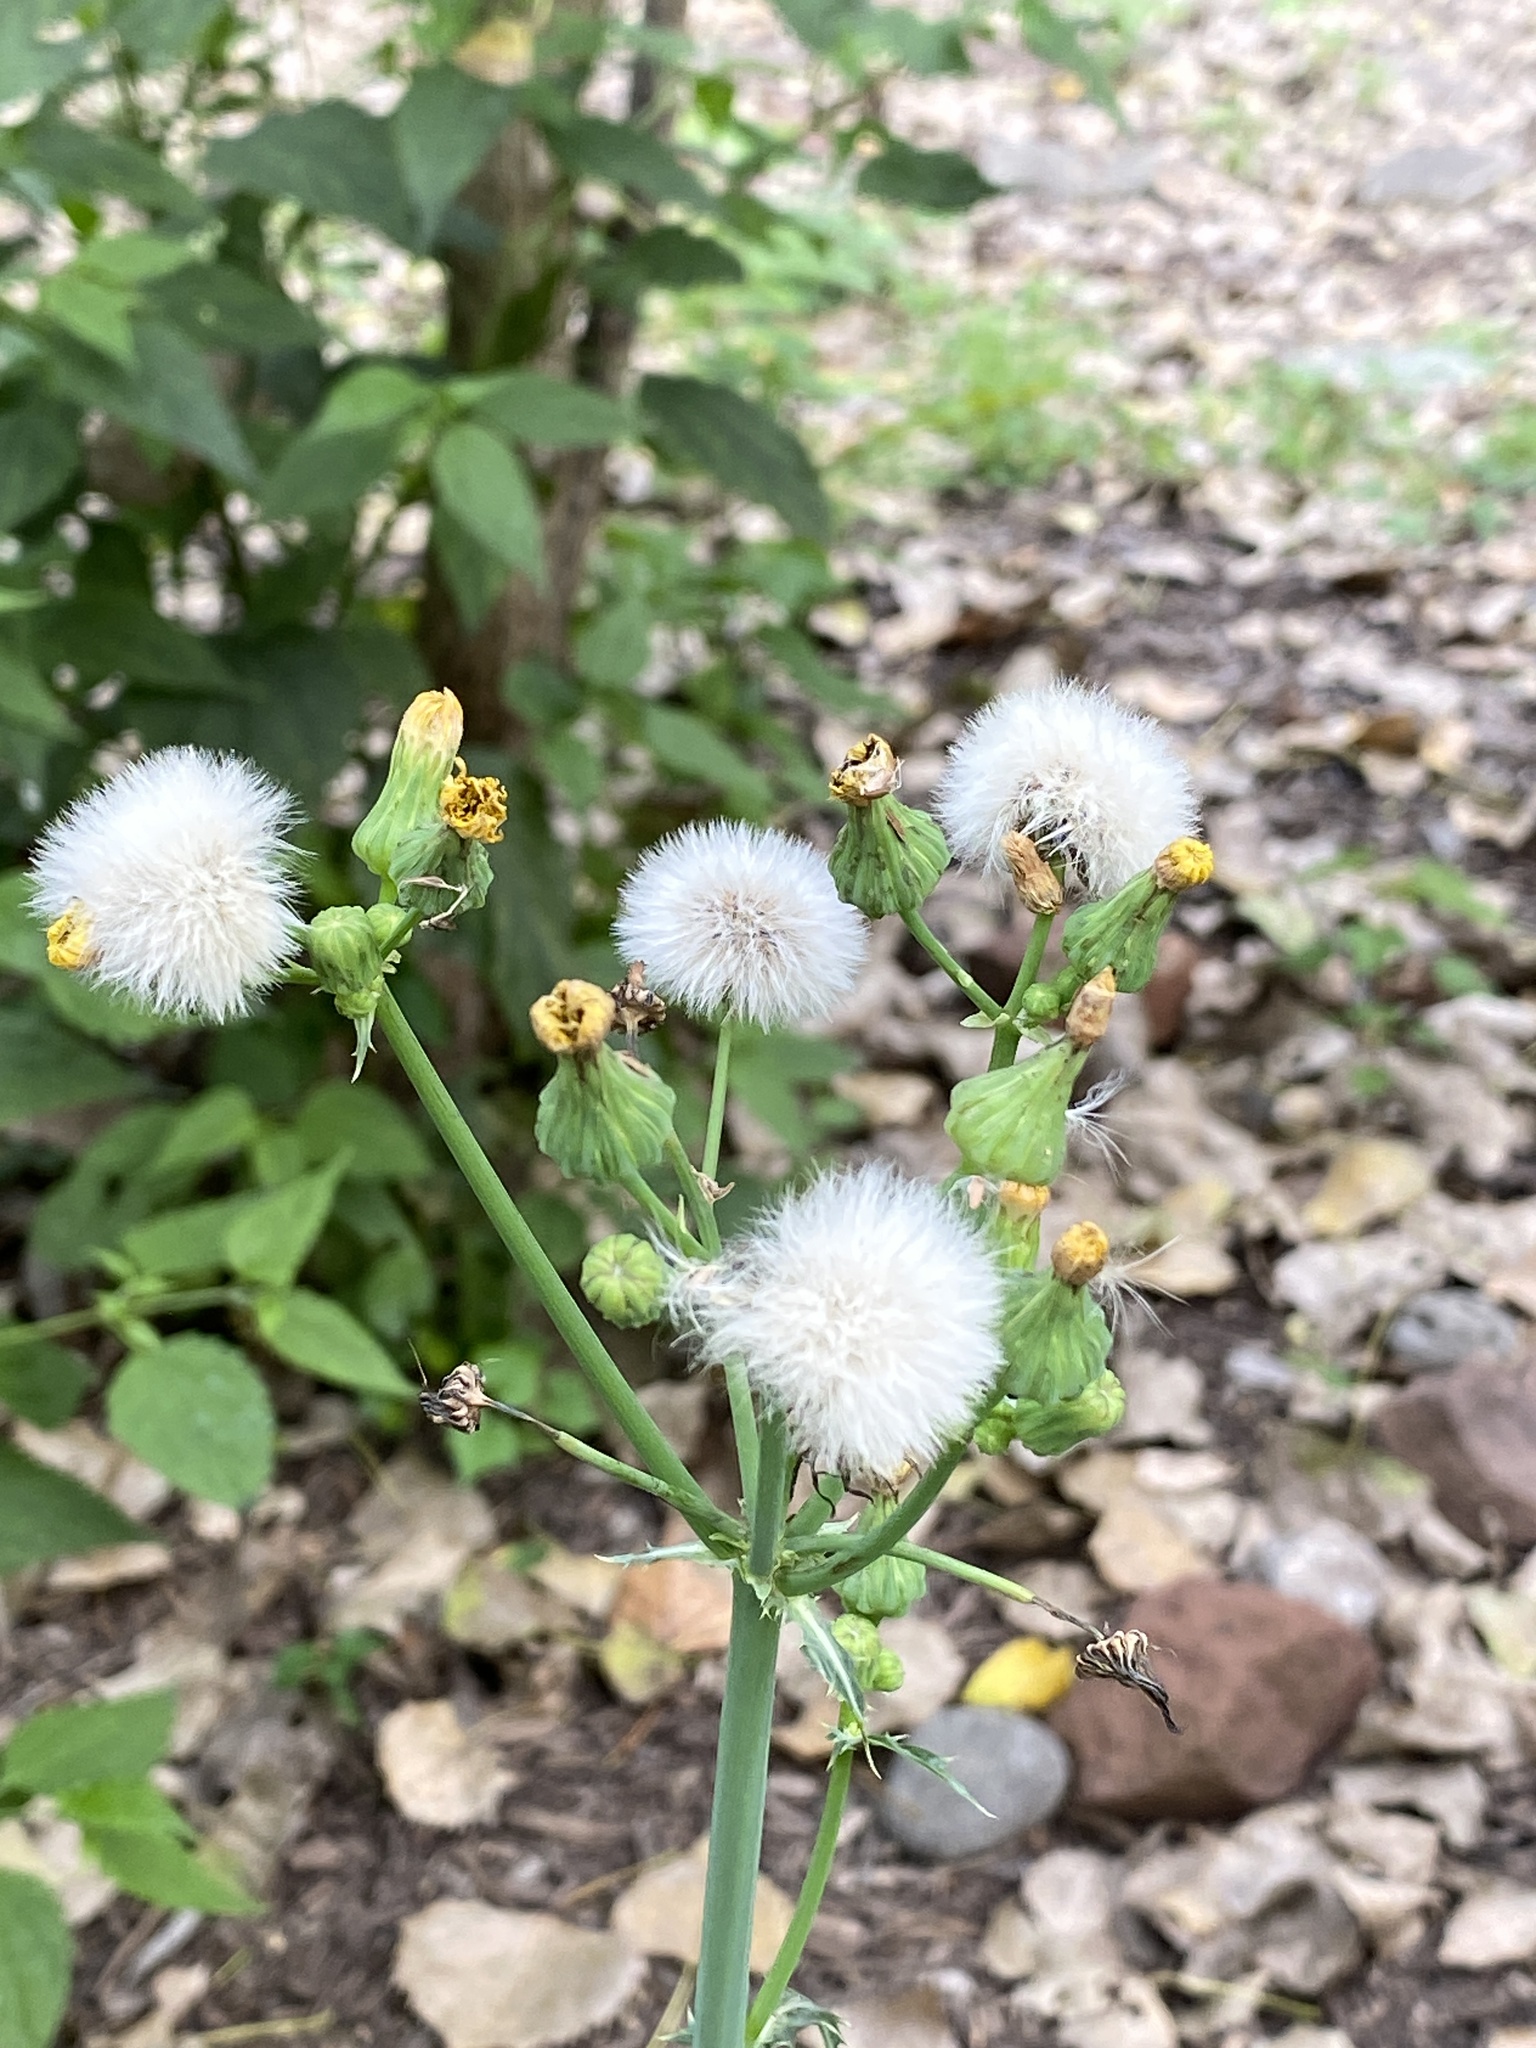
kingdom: Plantae
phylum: Tracheophyta
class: Magnoliopsida
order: Asterales
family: Asteraceae
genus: Sonchus
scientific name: Sonchus asper
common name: Prickly sow-thistle
